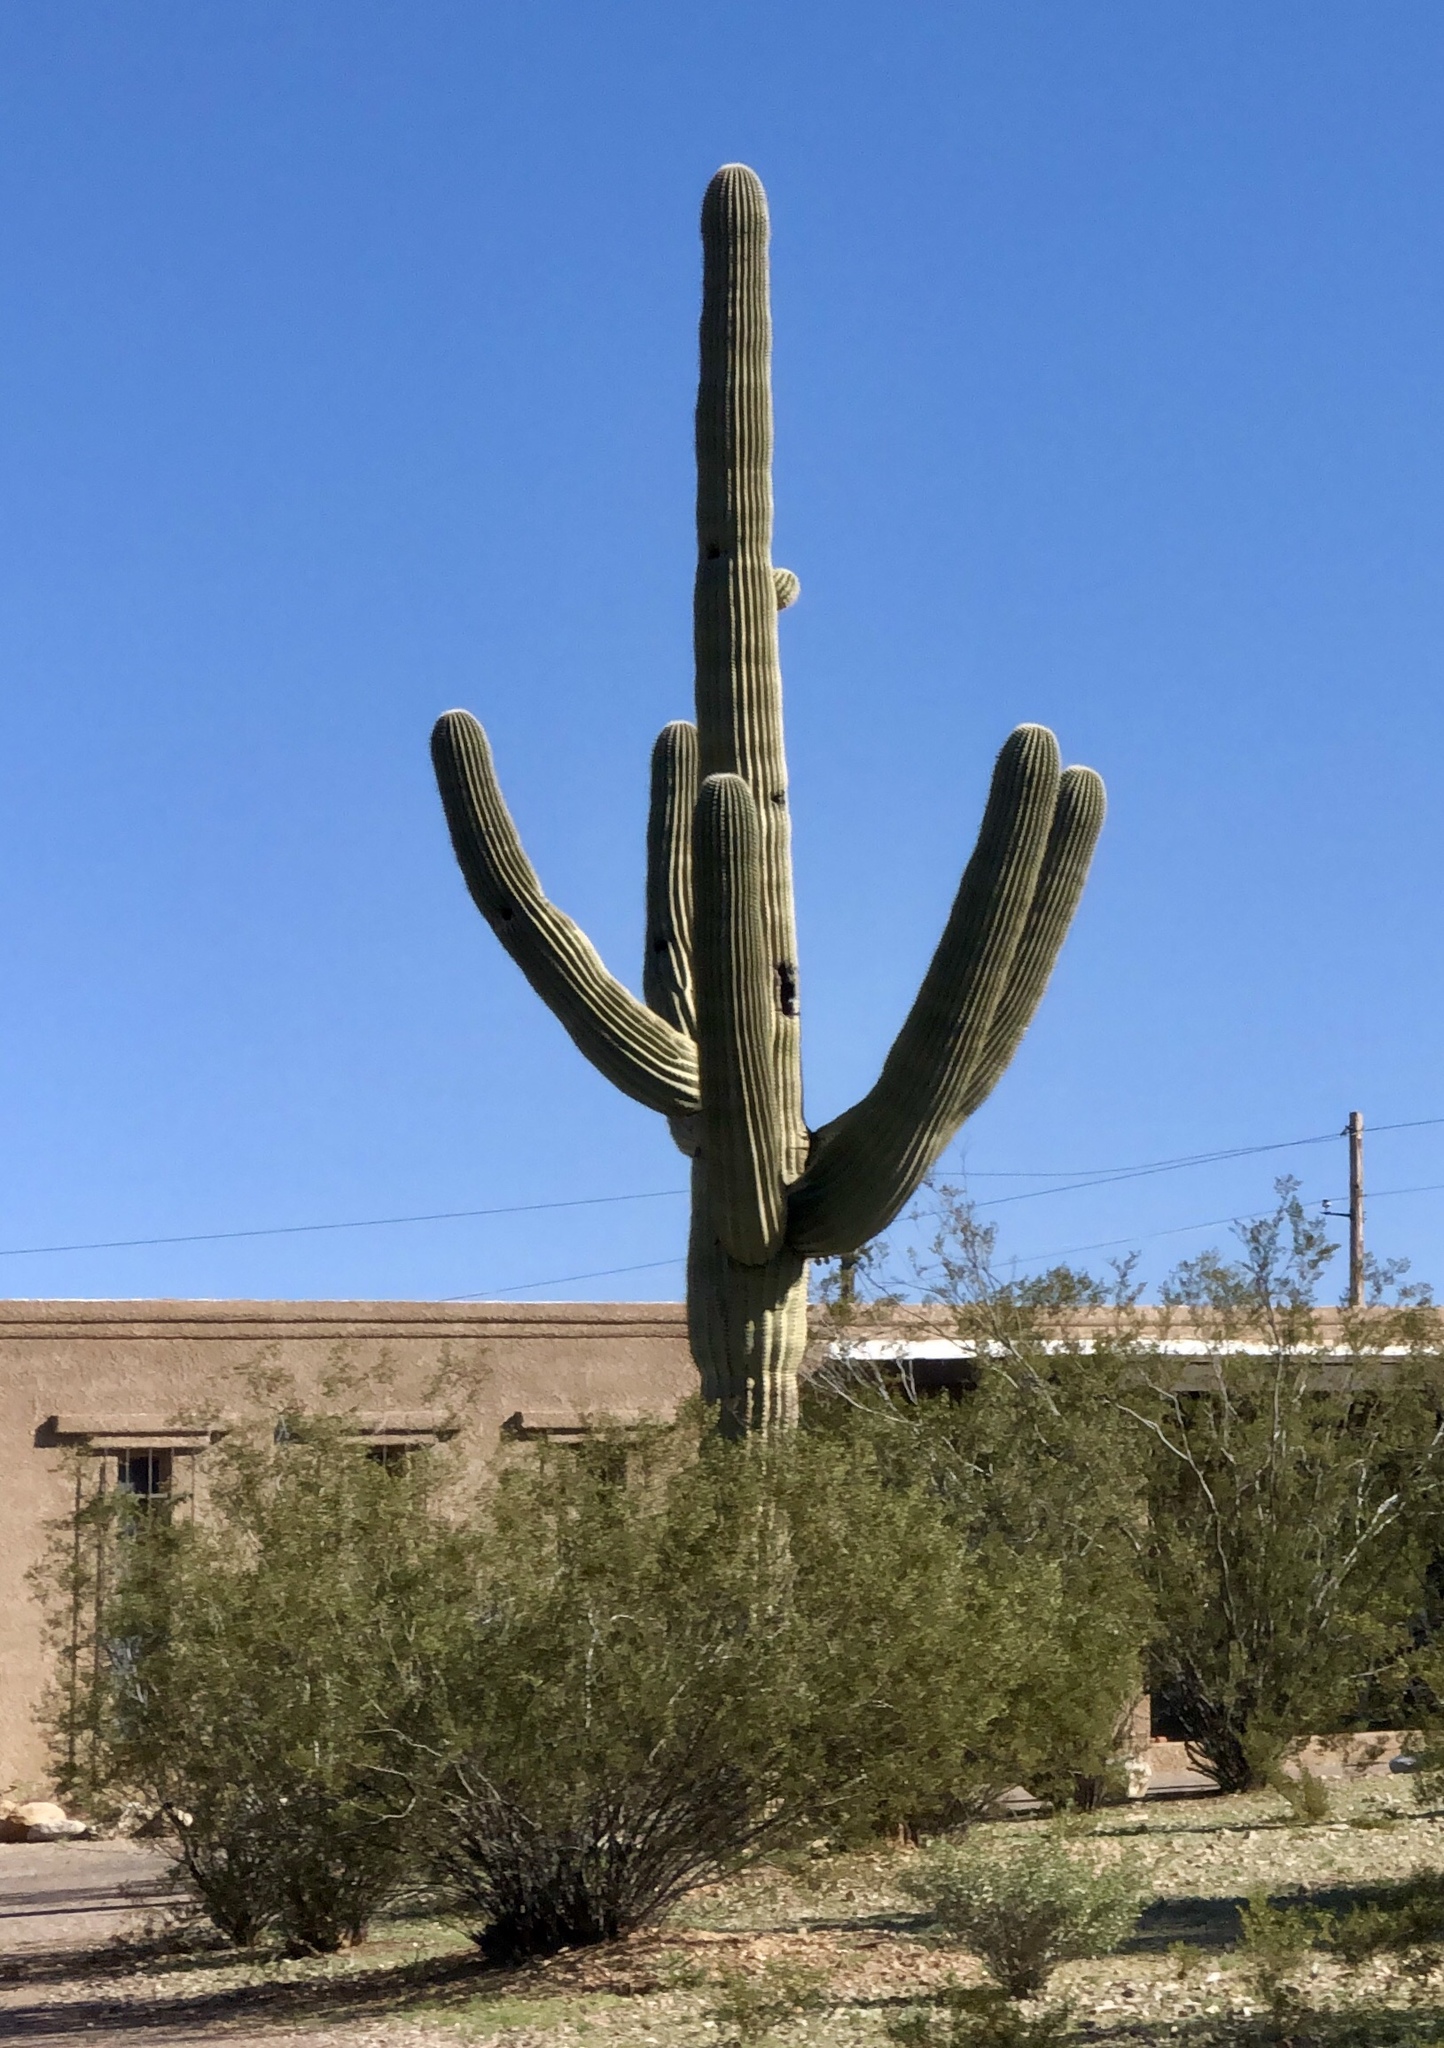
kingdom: Plantae
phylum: Tracheophyta
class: Magnoliopsida
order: Caryophyllales
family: Cactaceae
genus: Carnegiea
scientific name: Carnegiea gigantea
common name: Saguaro
